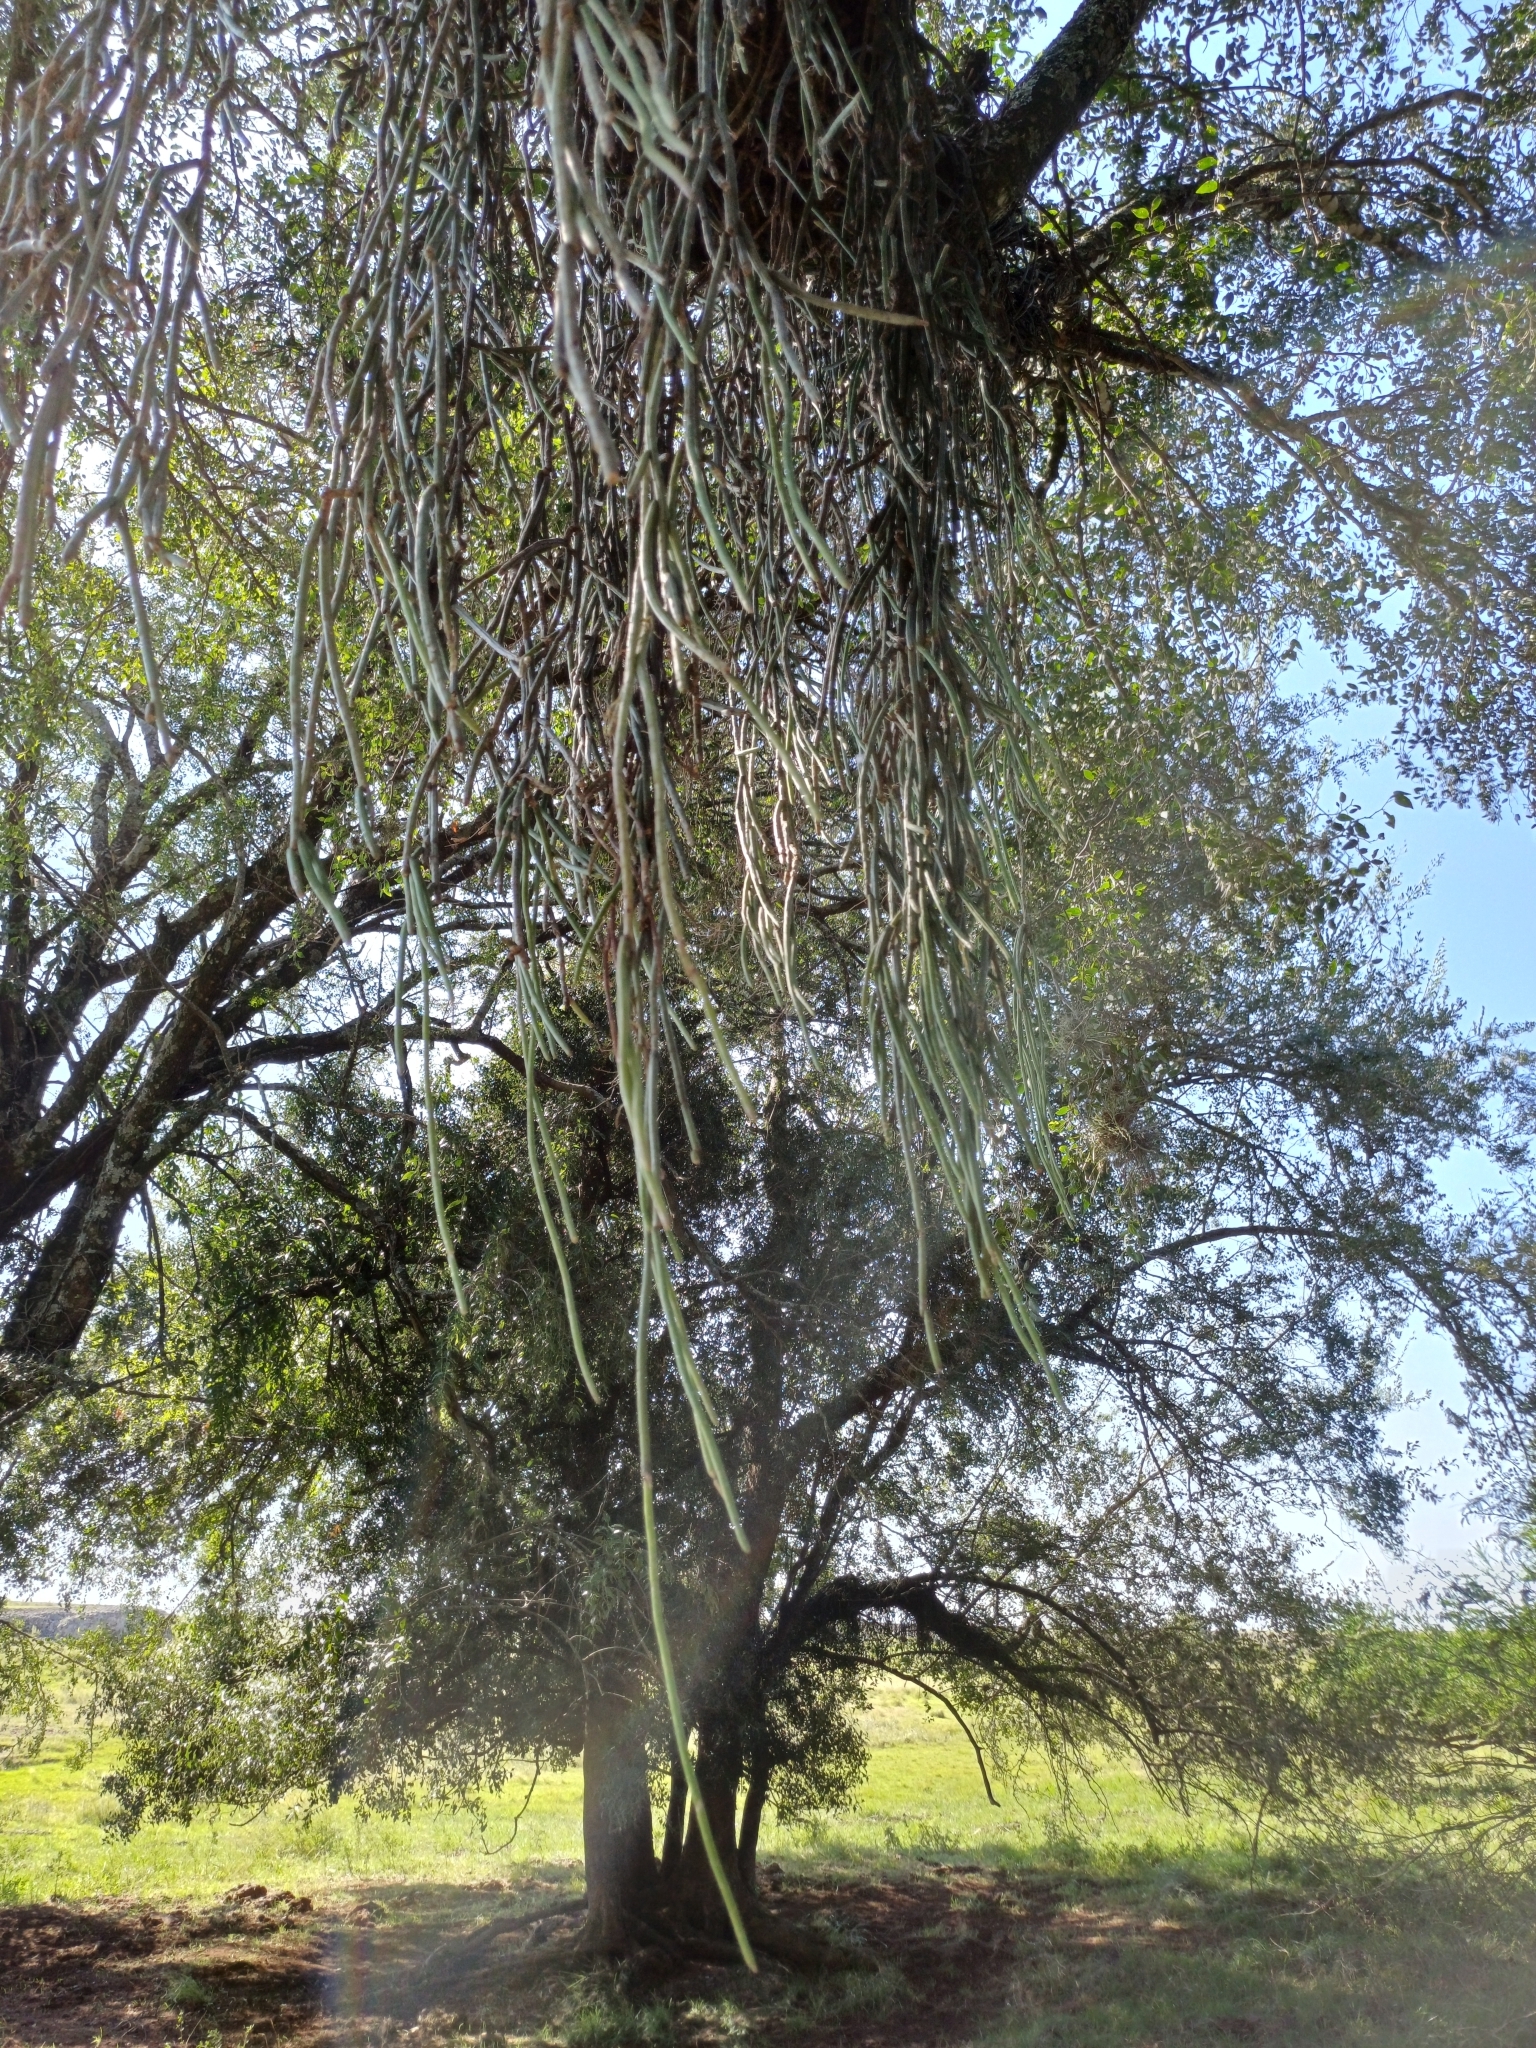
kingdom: Plantae
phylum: Tracheophyta
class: Magnoliopsida
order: Caryophyllales
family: Cactaceae
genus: Lepismium
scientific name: Lepismium lumbricoides
